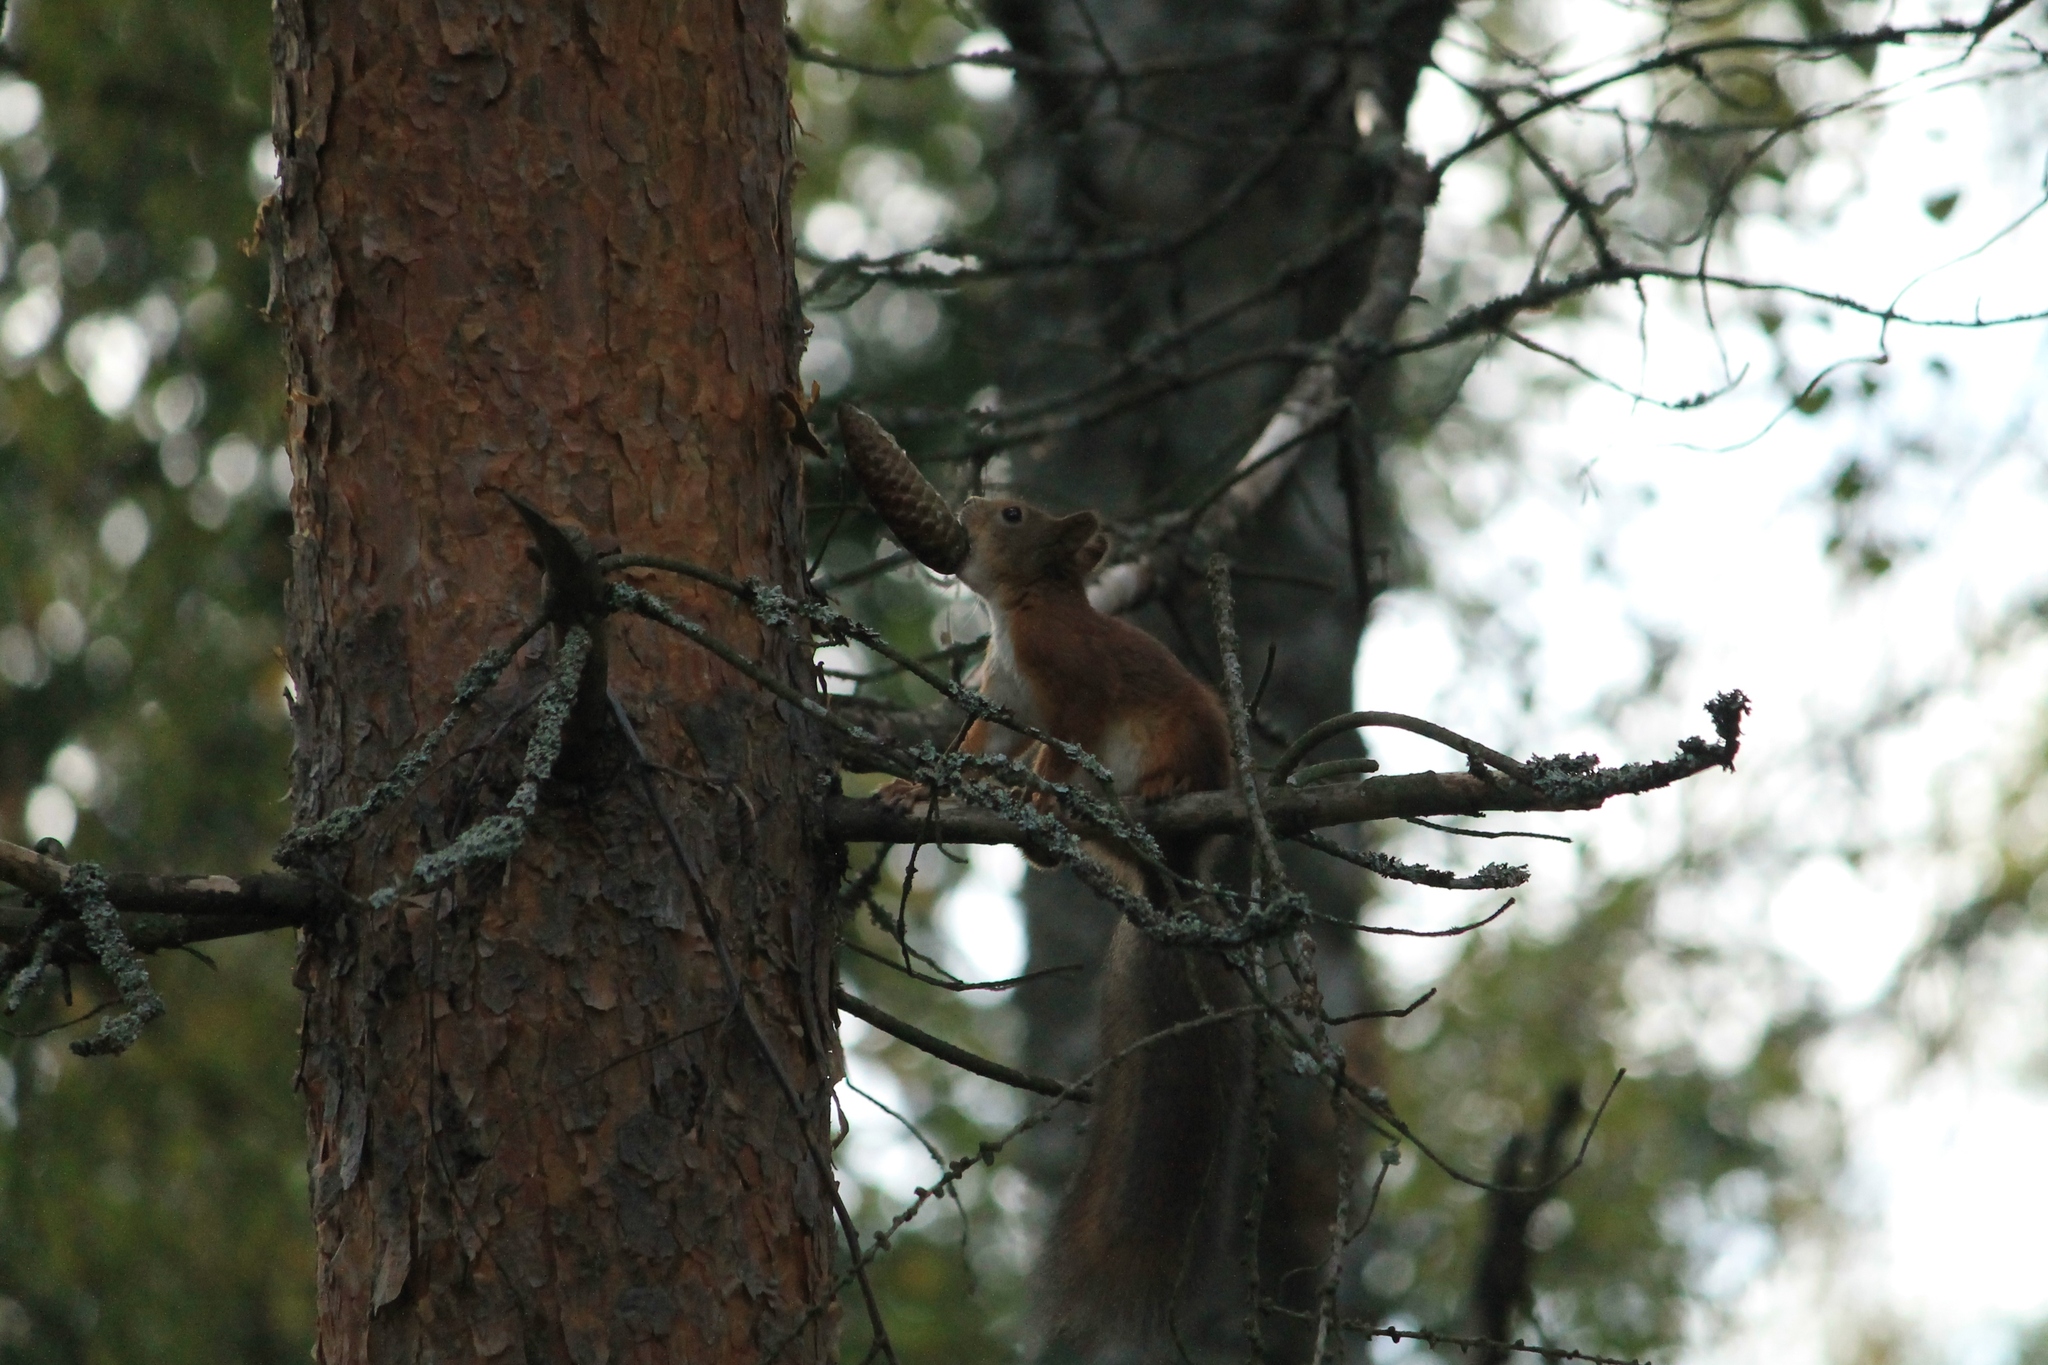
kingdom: Animalia
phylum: Chordata
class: Mammalia
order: Rodentia
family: Sciuridae
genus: Sciurus
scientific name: Sciurus vulgaris
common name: Eurasian red squirrel
